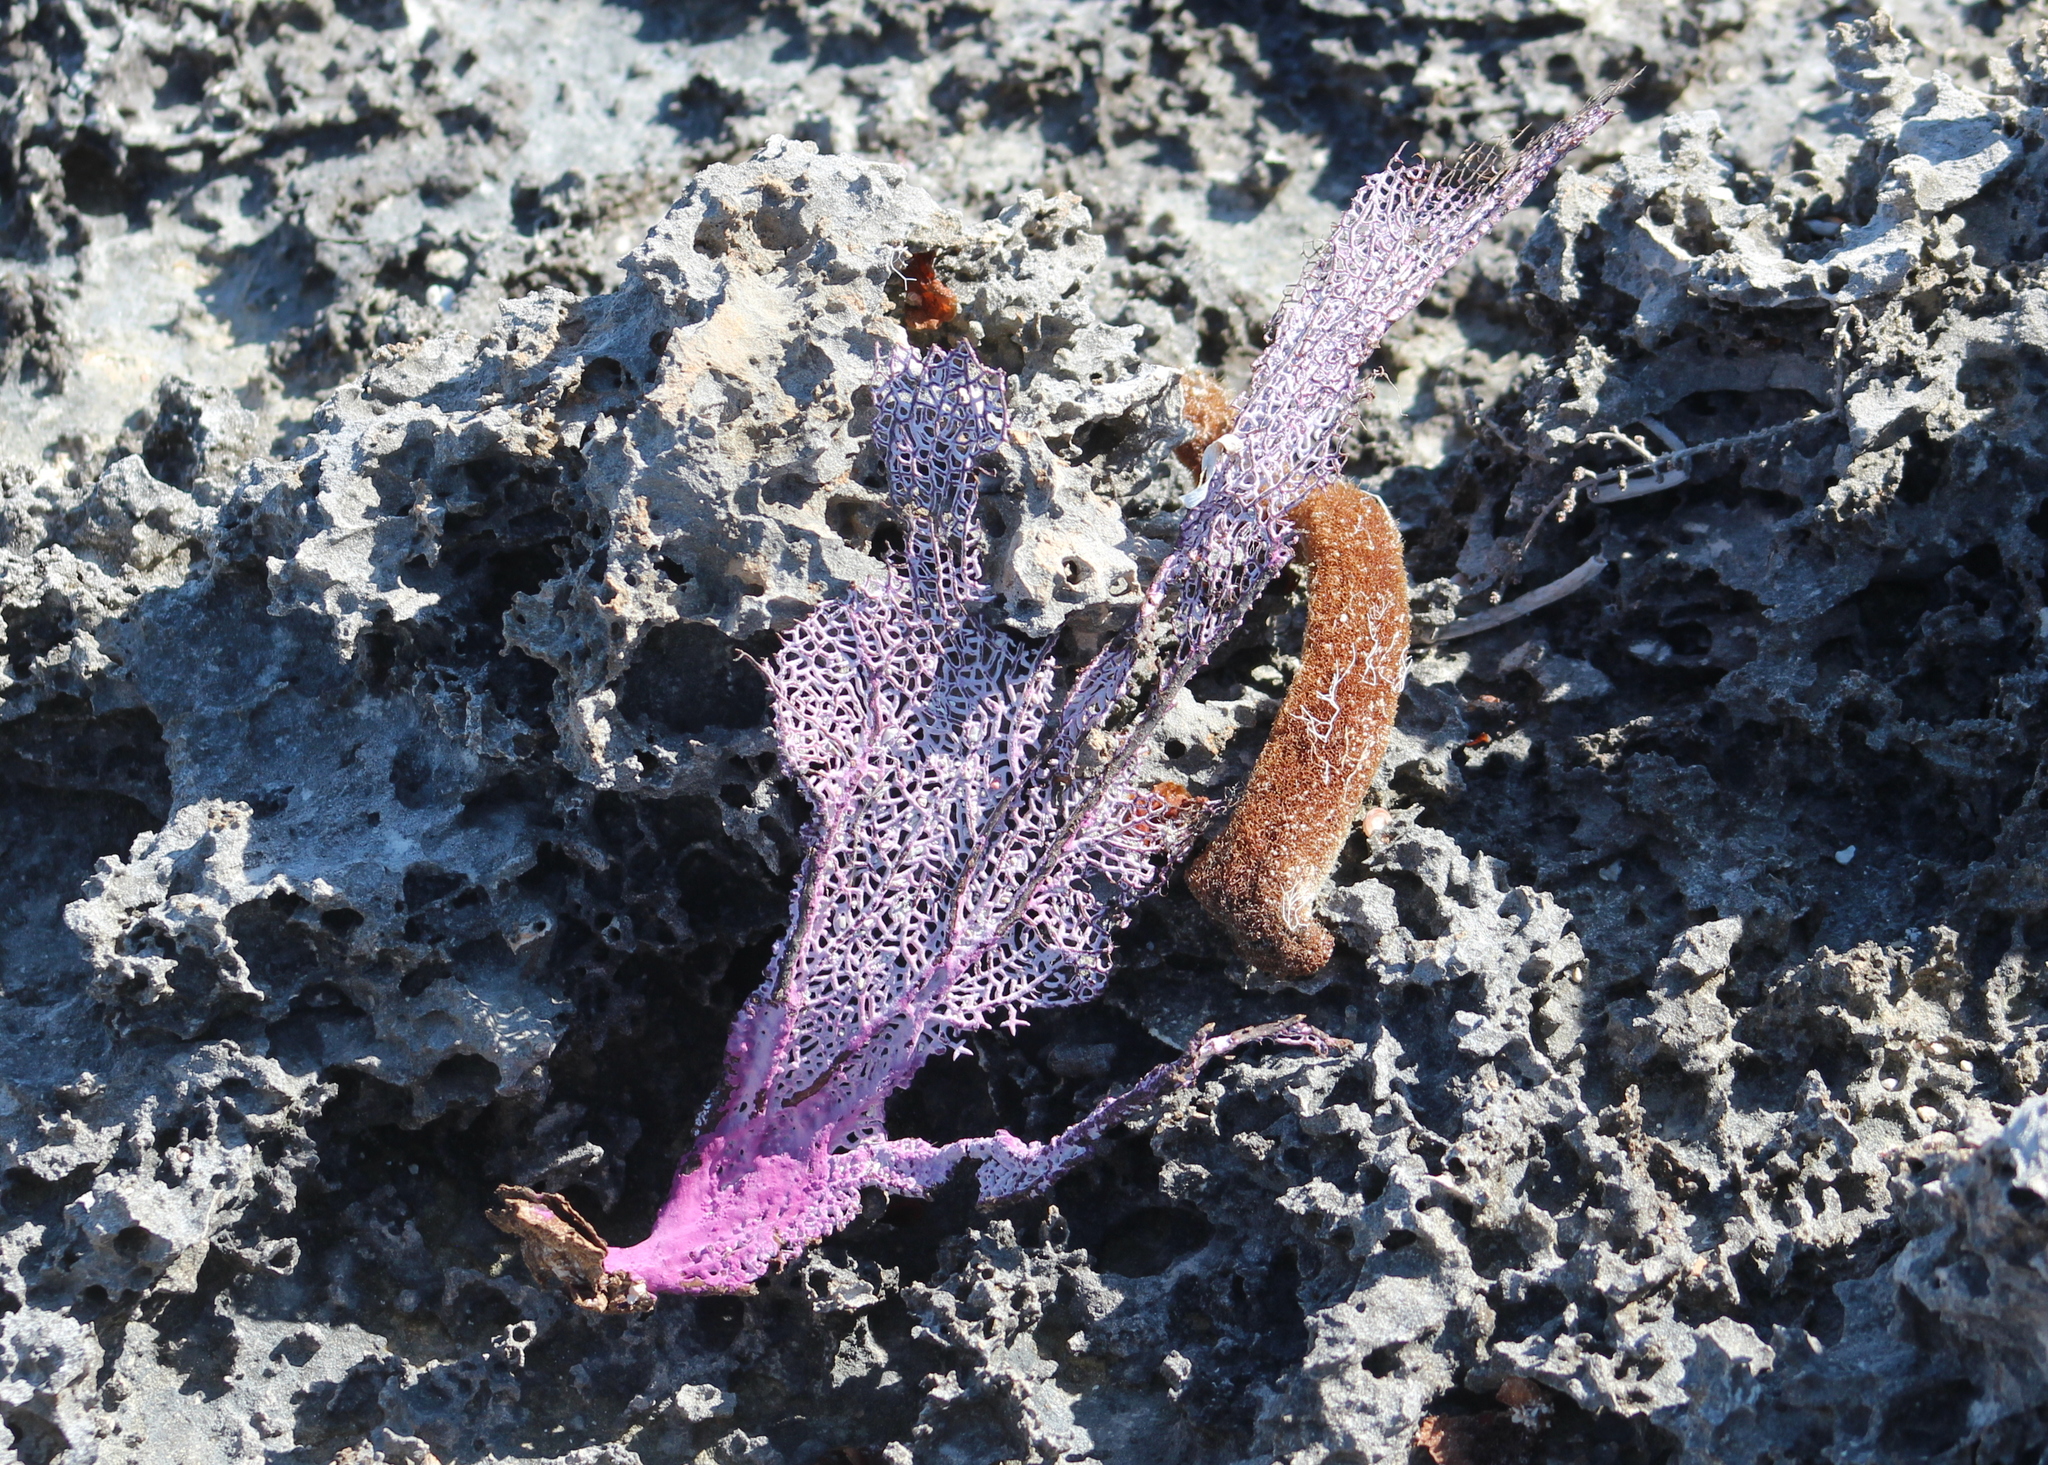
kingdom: Animalia
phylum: Cnidaria
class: Anthozoa
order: Malacalcyonacea
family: Gorgoniidae
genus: Gorgonia
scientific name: Gorgonia ventalina
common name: Common sea fan
